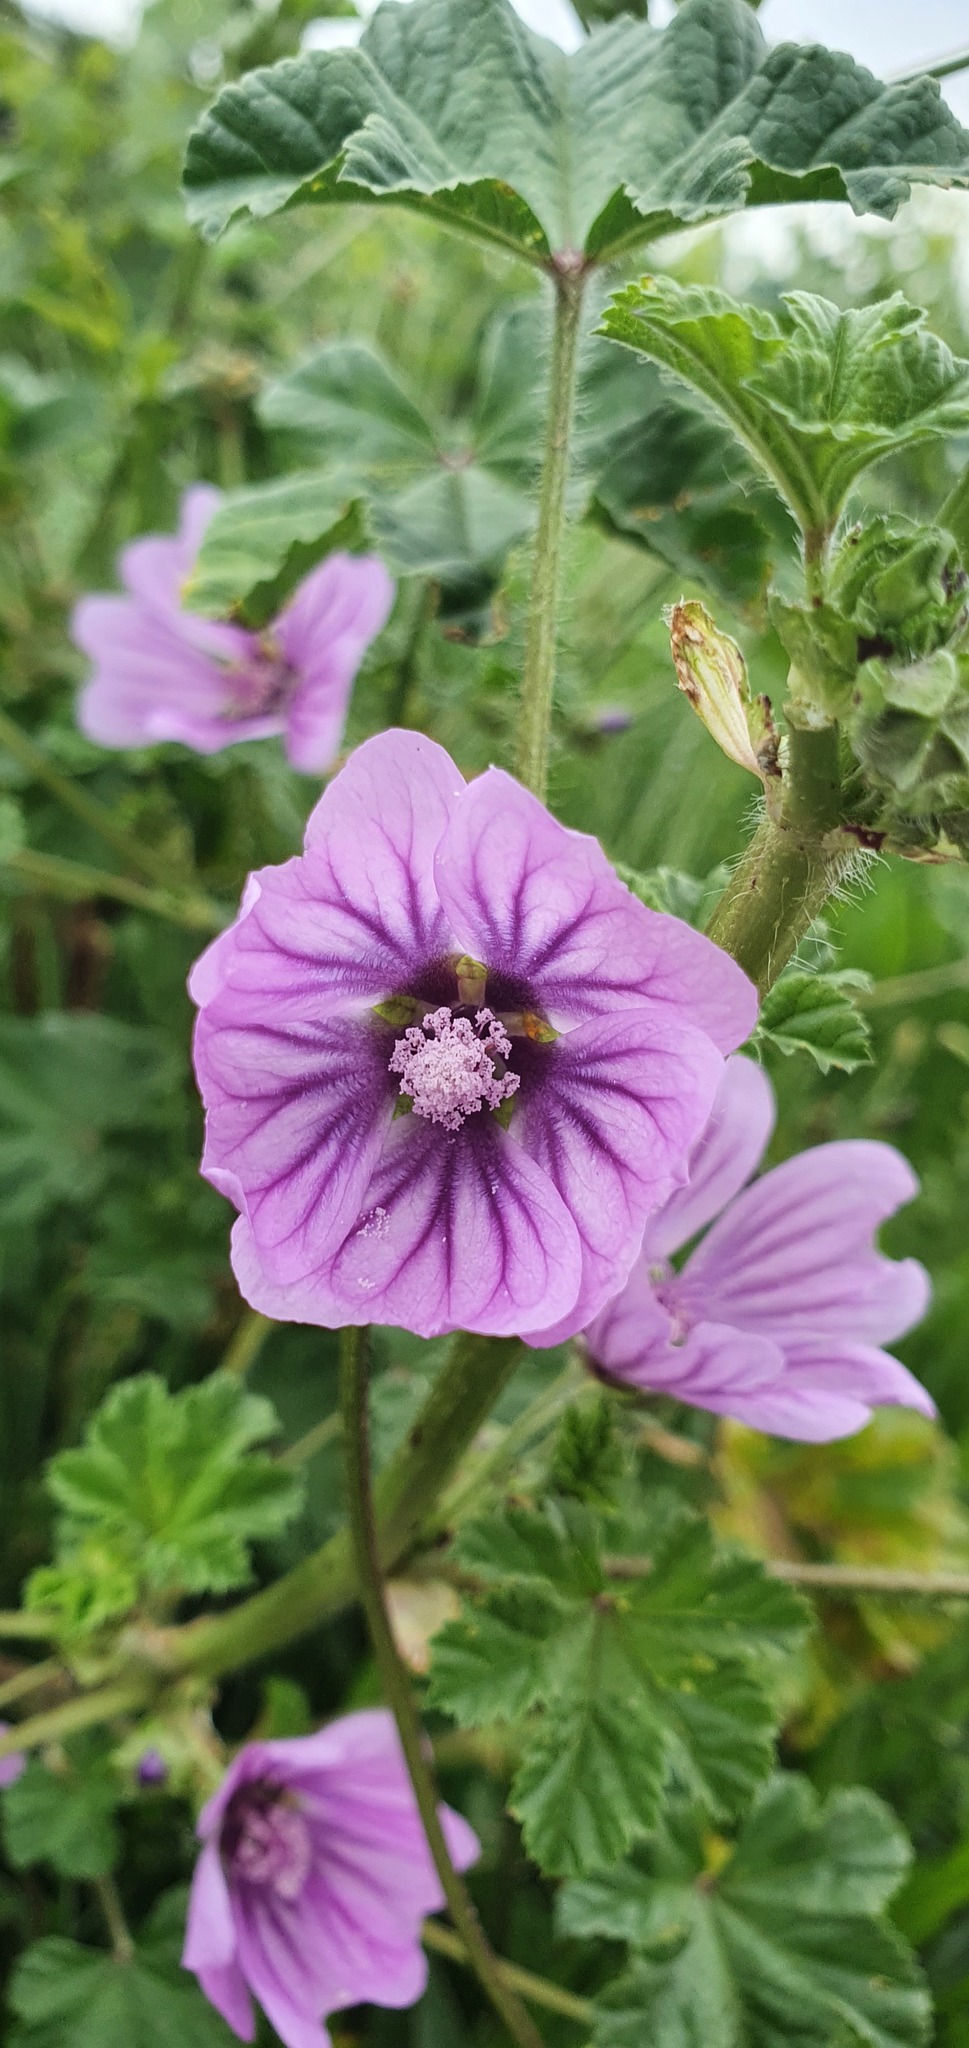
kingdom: Plantae
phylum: Tracheophyta
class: Magnoliopsida
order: Malvales
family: Malvaceae
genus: Malva
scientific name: Malva sylvestris
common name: Common mallow
